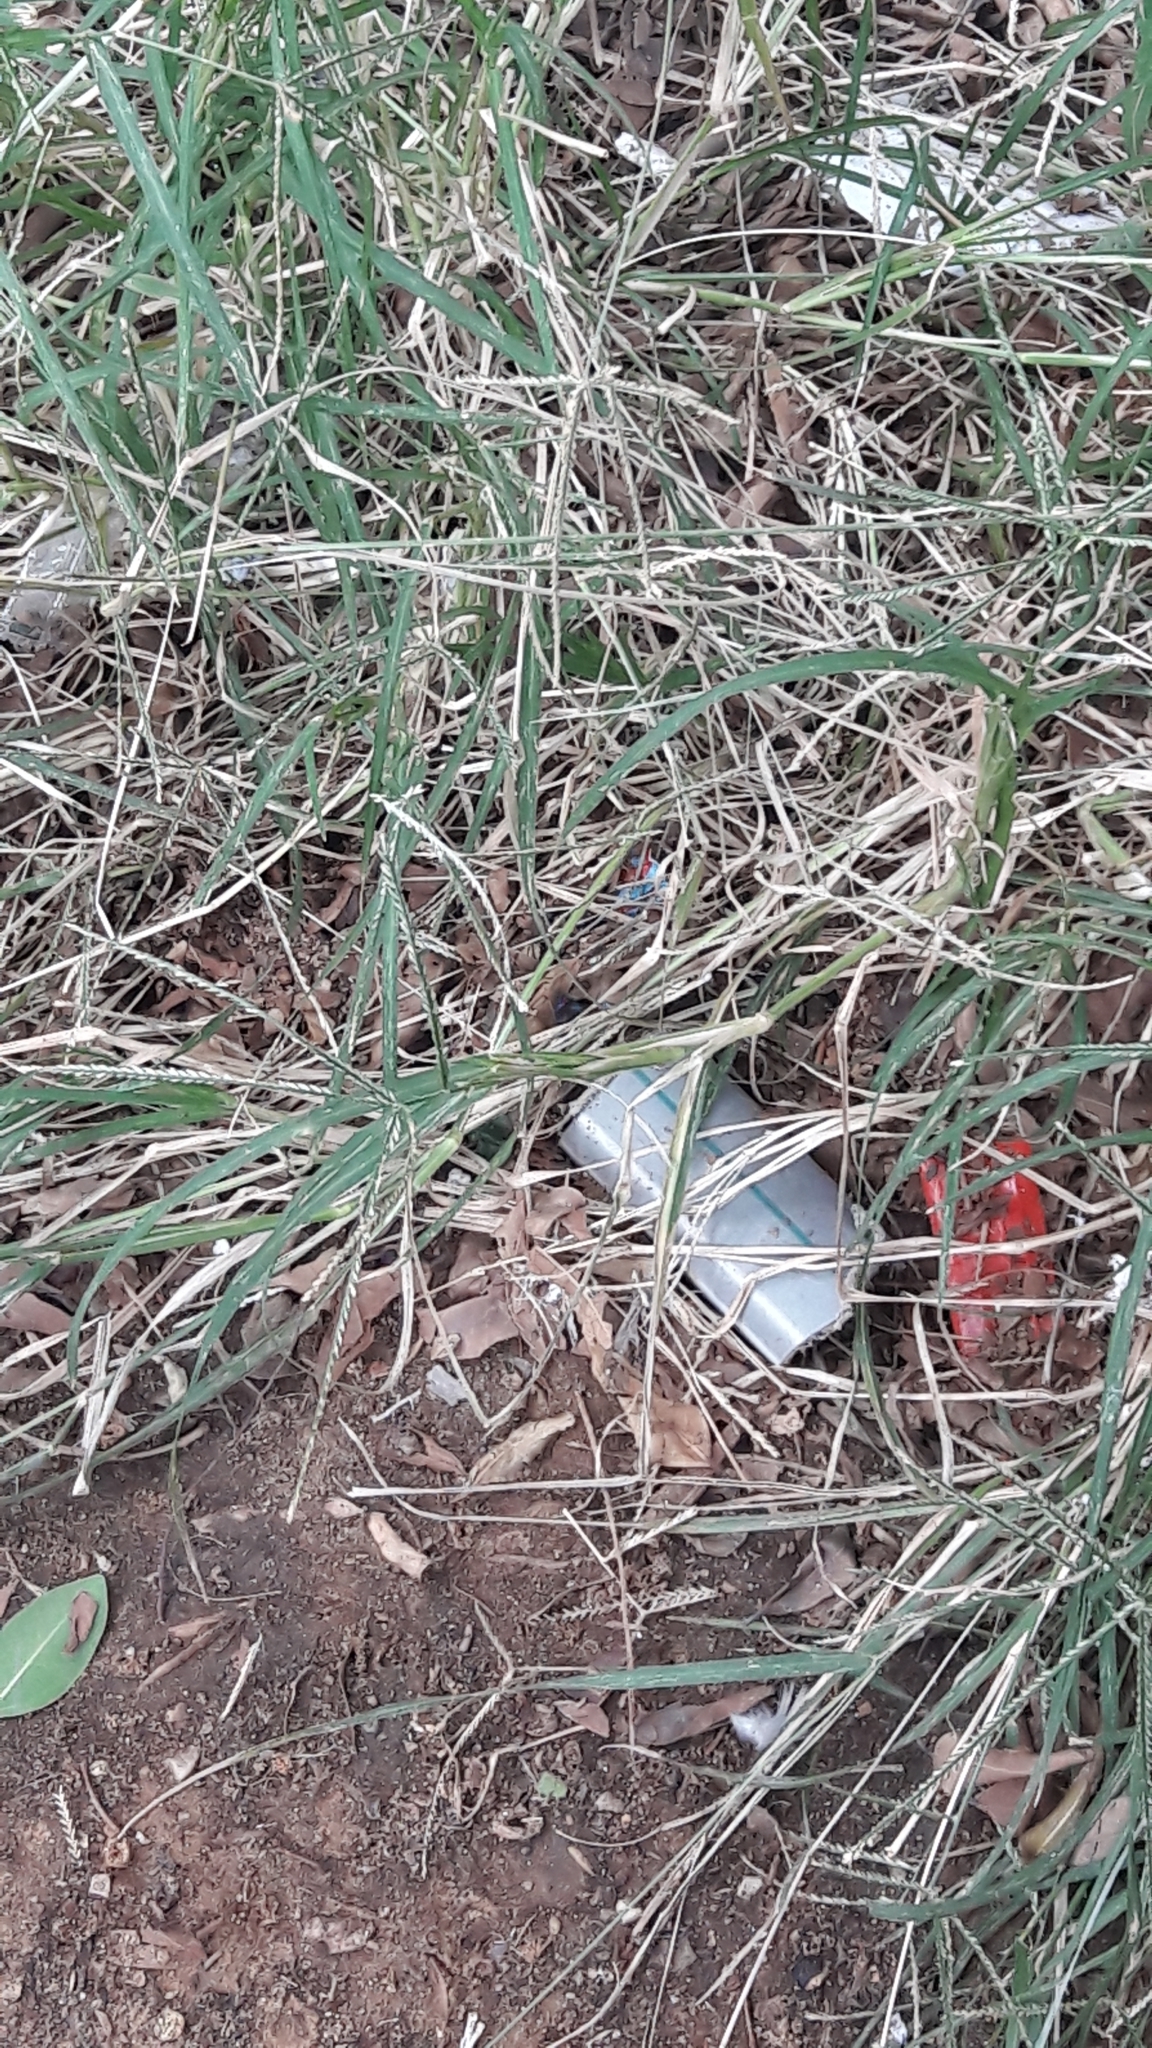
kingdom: Plantae
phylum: Tracheophyta
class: Liliopsida
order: Poales
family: Poaceae
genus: Cynodon
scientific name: Cynodon dactylon
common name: Bermuda grass
